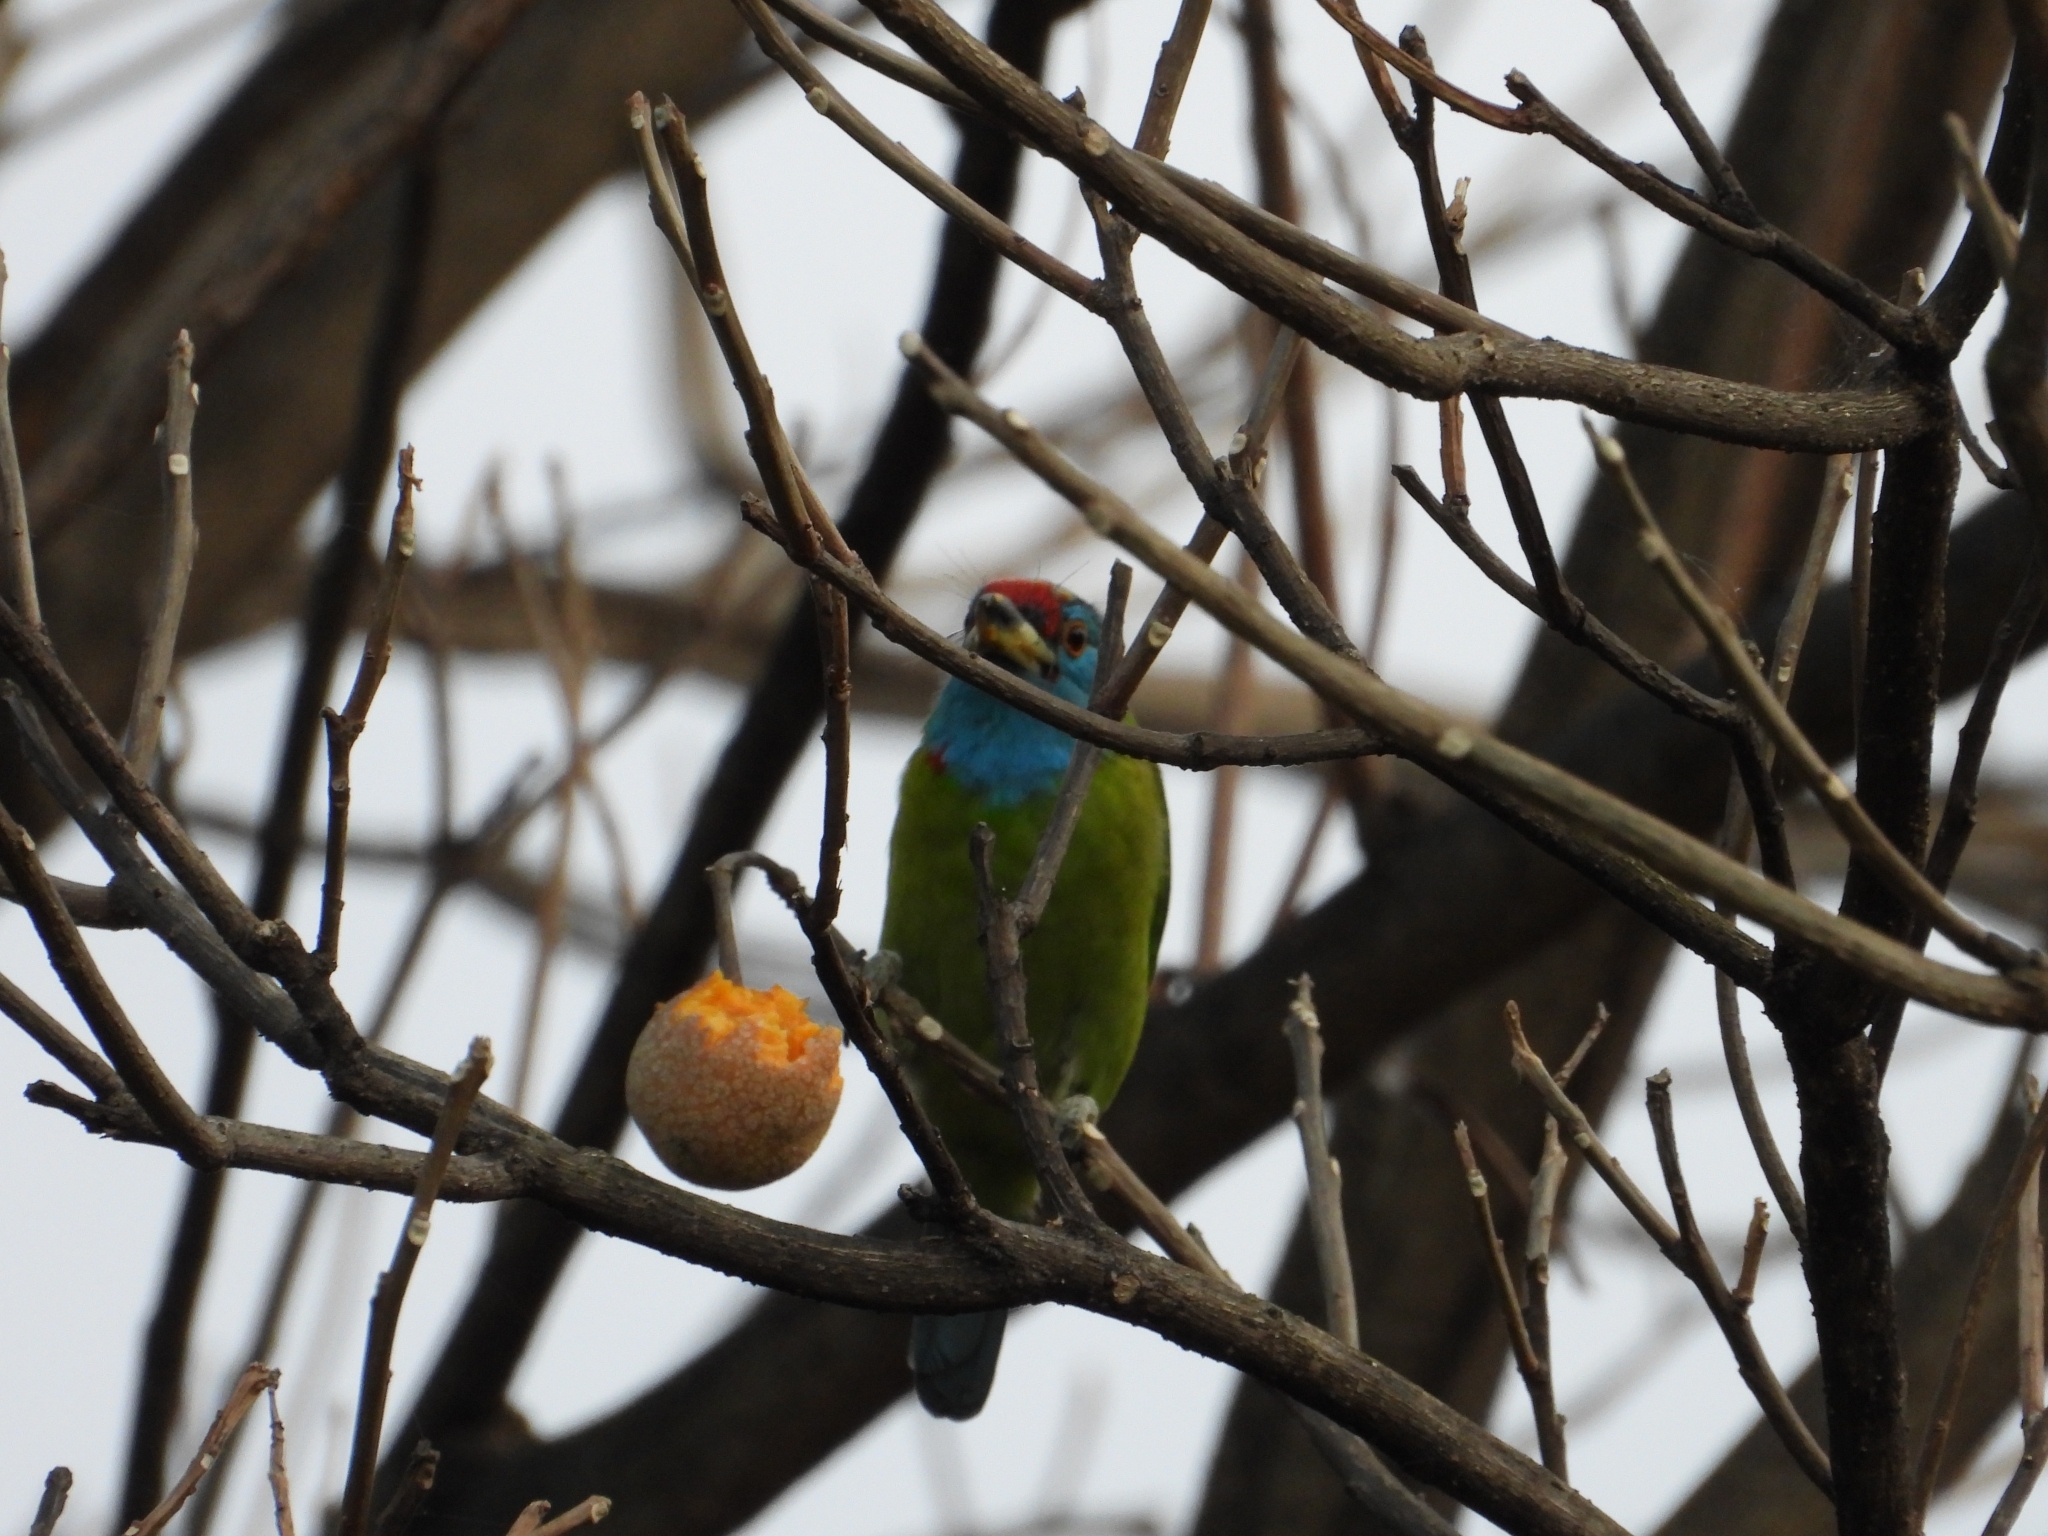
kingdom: Animalia
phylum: Chordata
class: Aves
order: Piciformes
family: Megalaimidae
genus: Psilopogon
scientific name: Psilopogon asiaticus
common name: Blue-throated barbet
